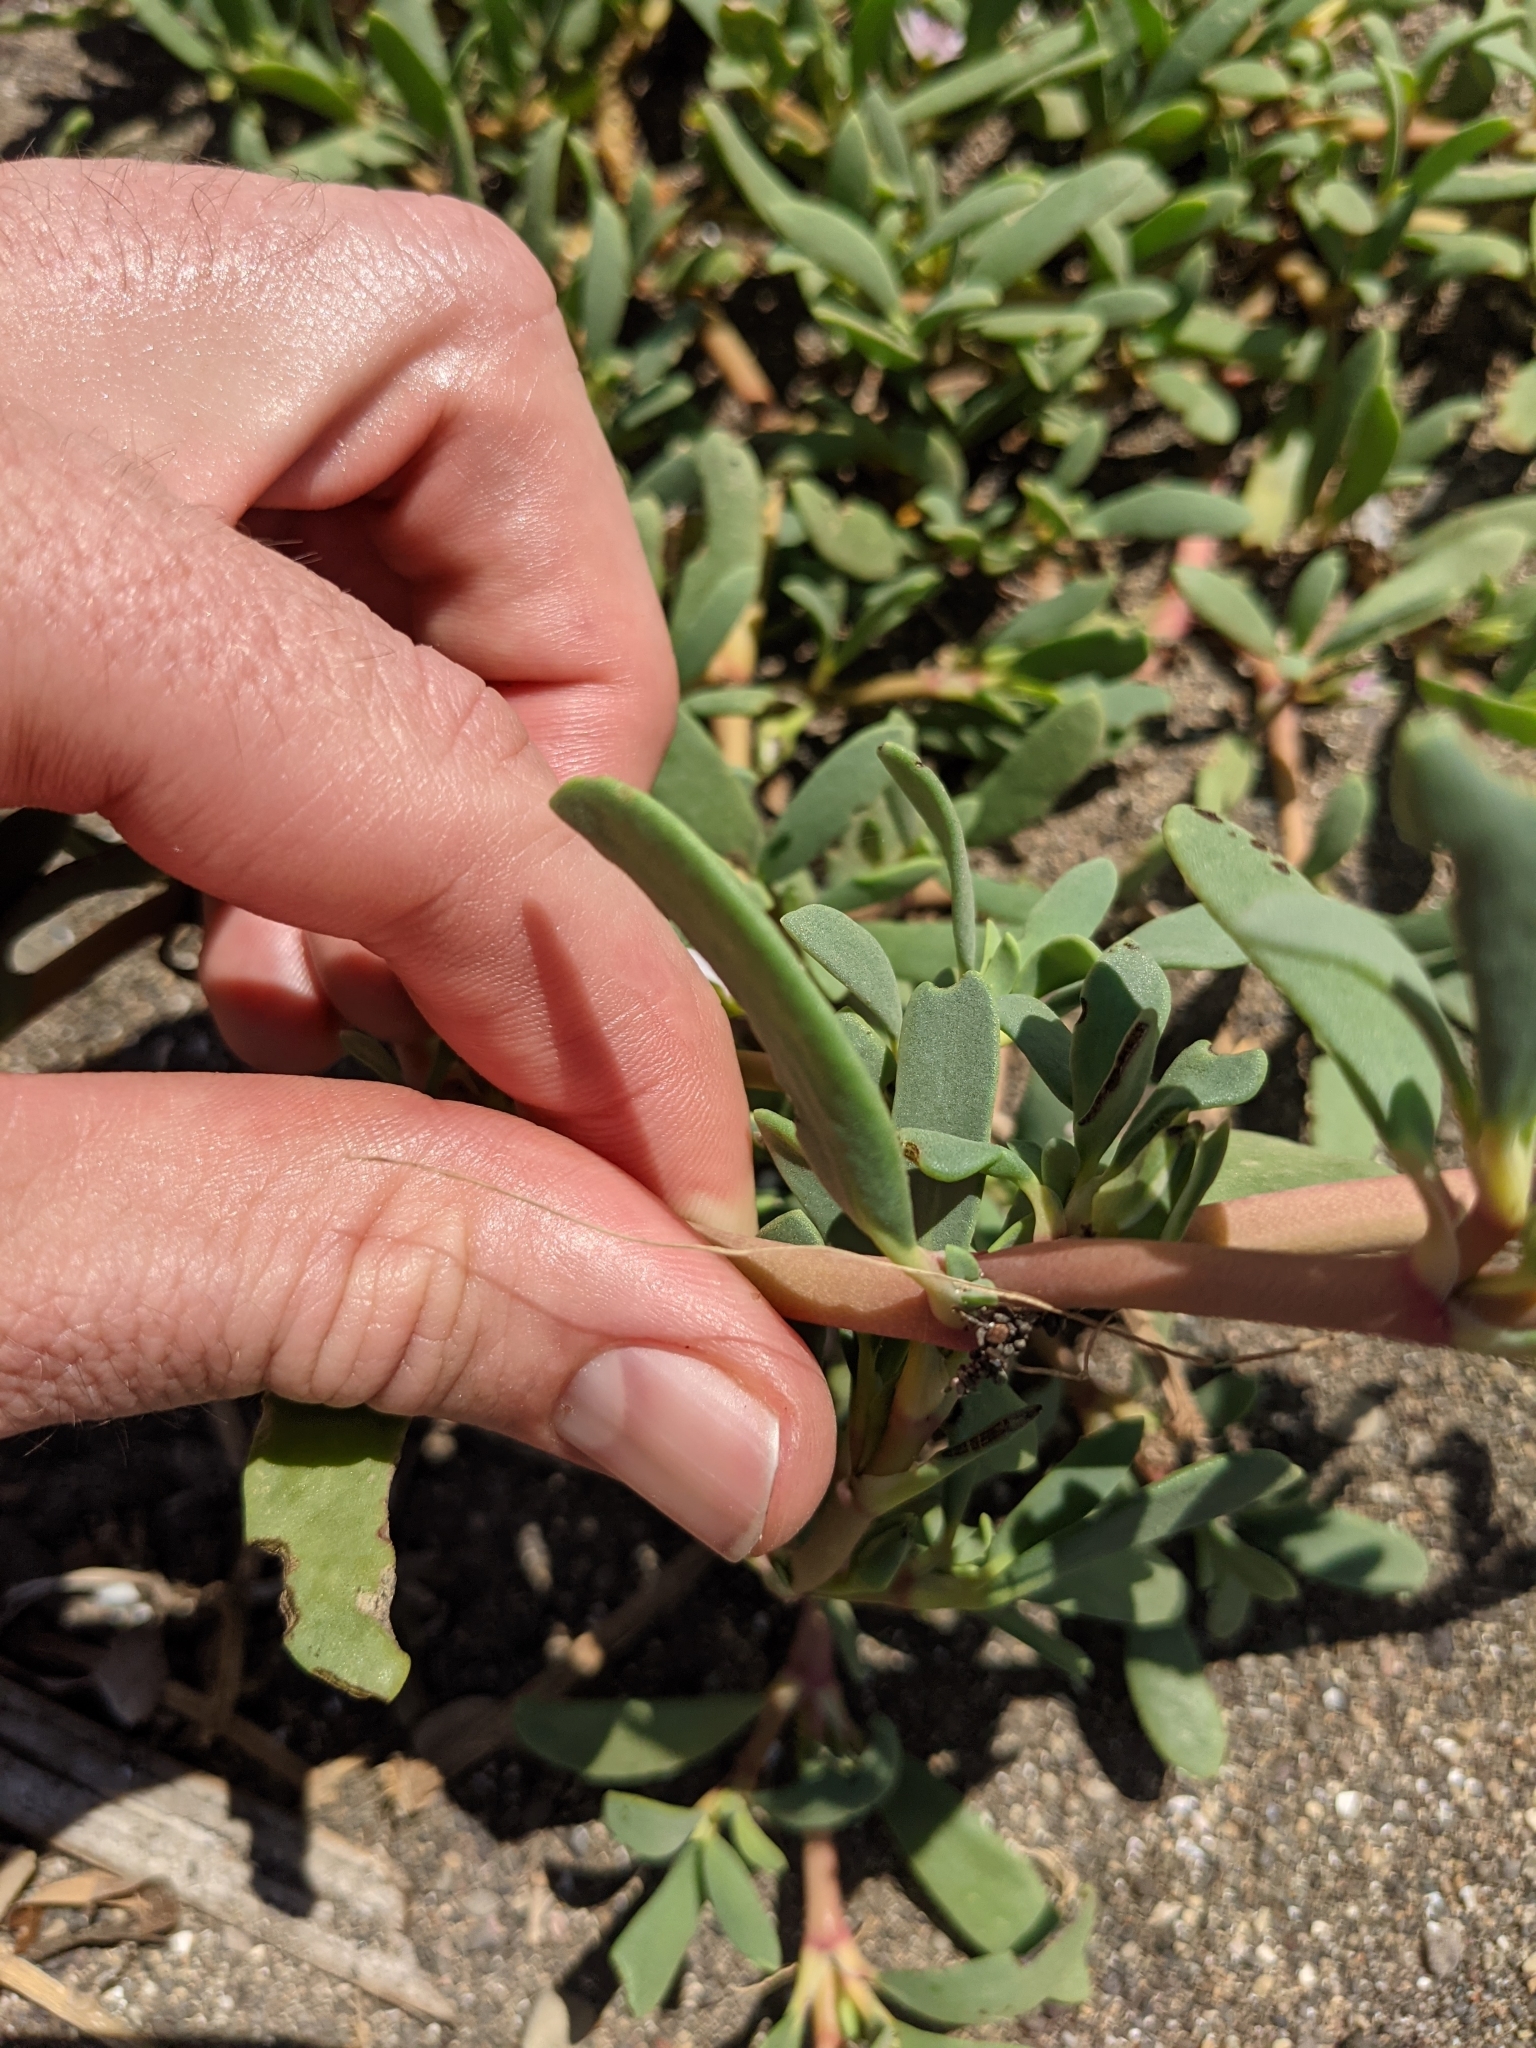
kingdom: Plantae
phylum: Tracheophyta
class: Magnoliopsida
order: Caryophyllales
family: Aizoaceae
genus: Sesuvium
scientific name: Sesuvium portulacastrum
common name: Sea-purslane
